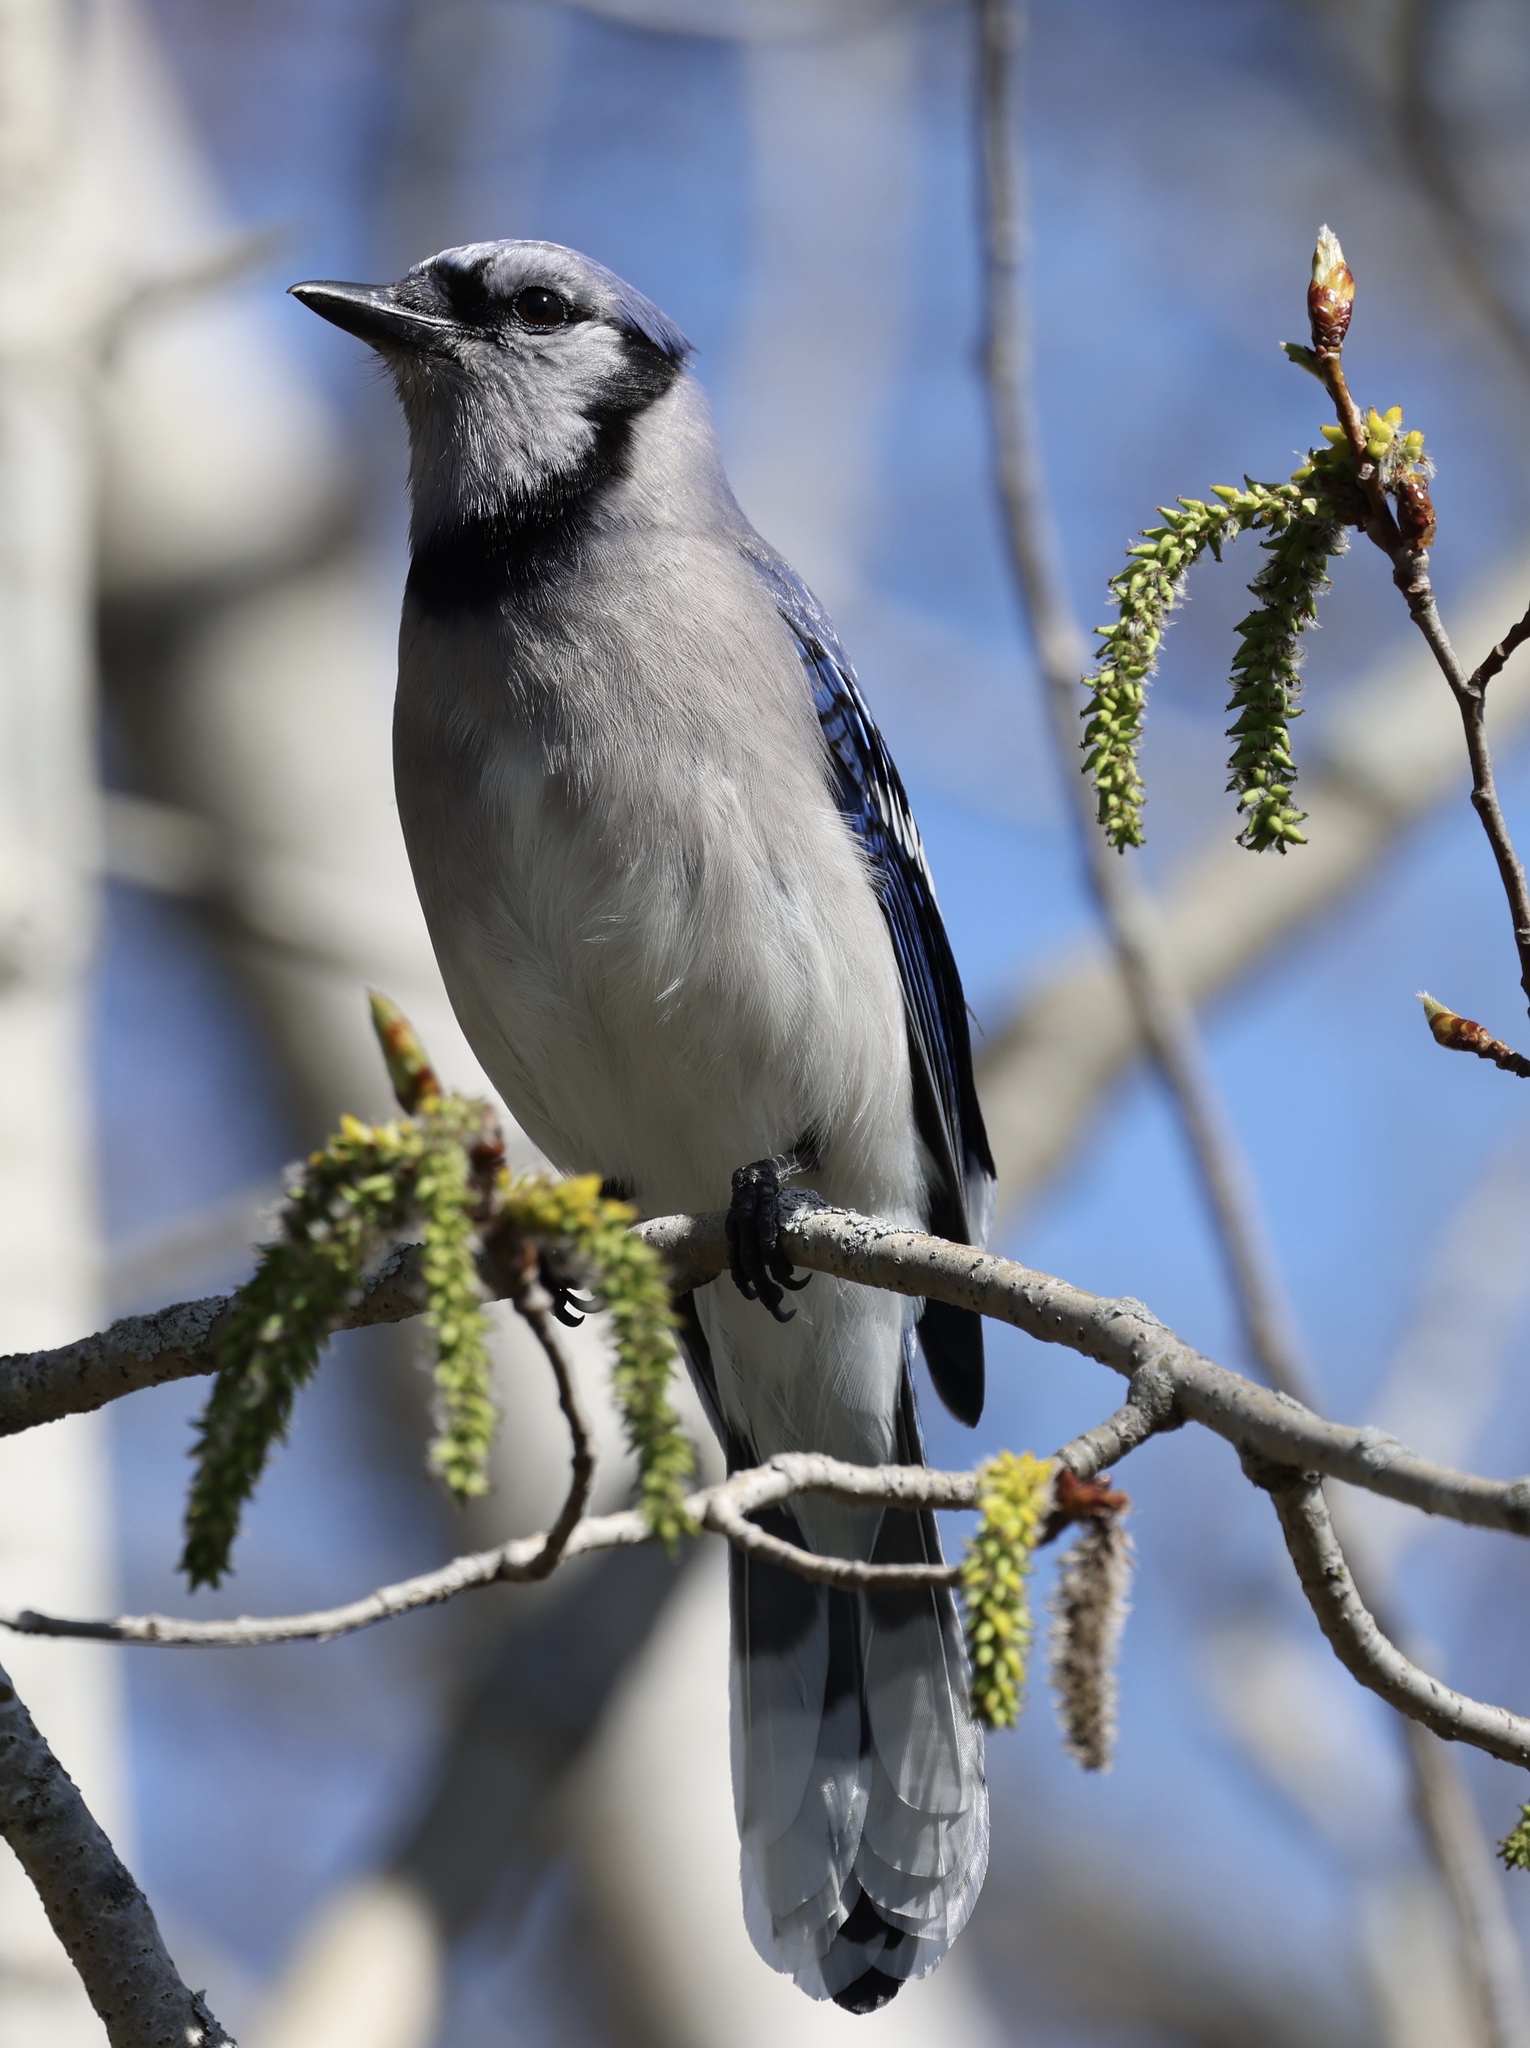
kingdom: Animalia
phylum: Chordata
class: Aves
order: Passeriformes
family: Corvidae
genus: Cyanocitta
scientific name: Cyanocitta cristata
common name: Blue jay
